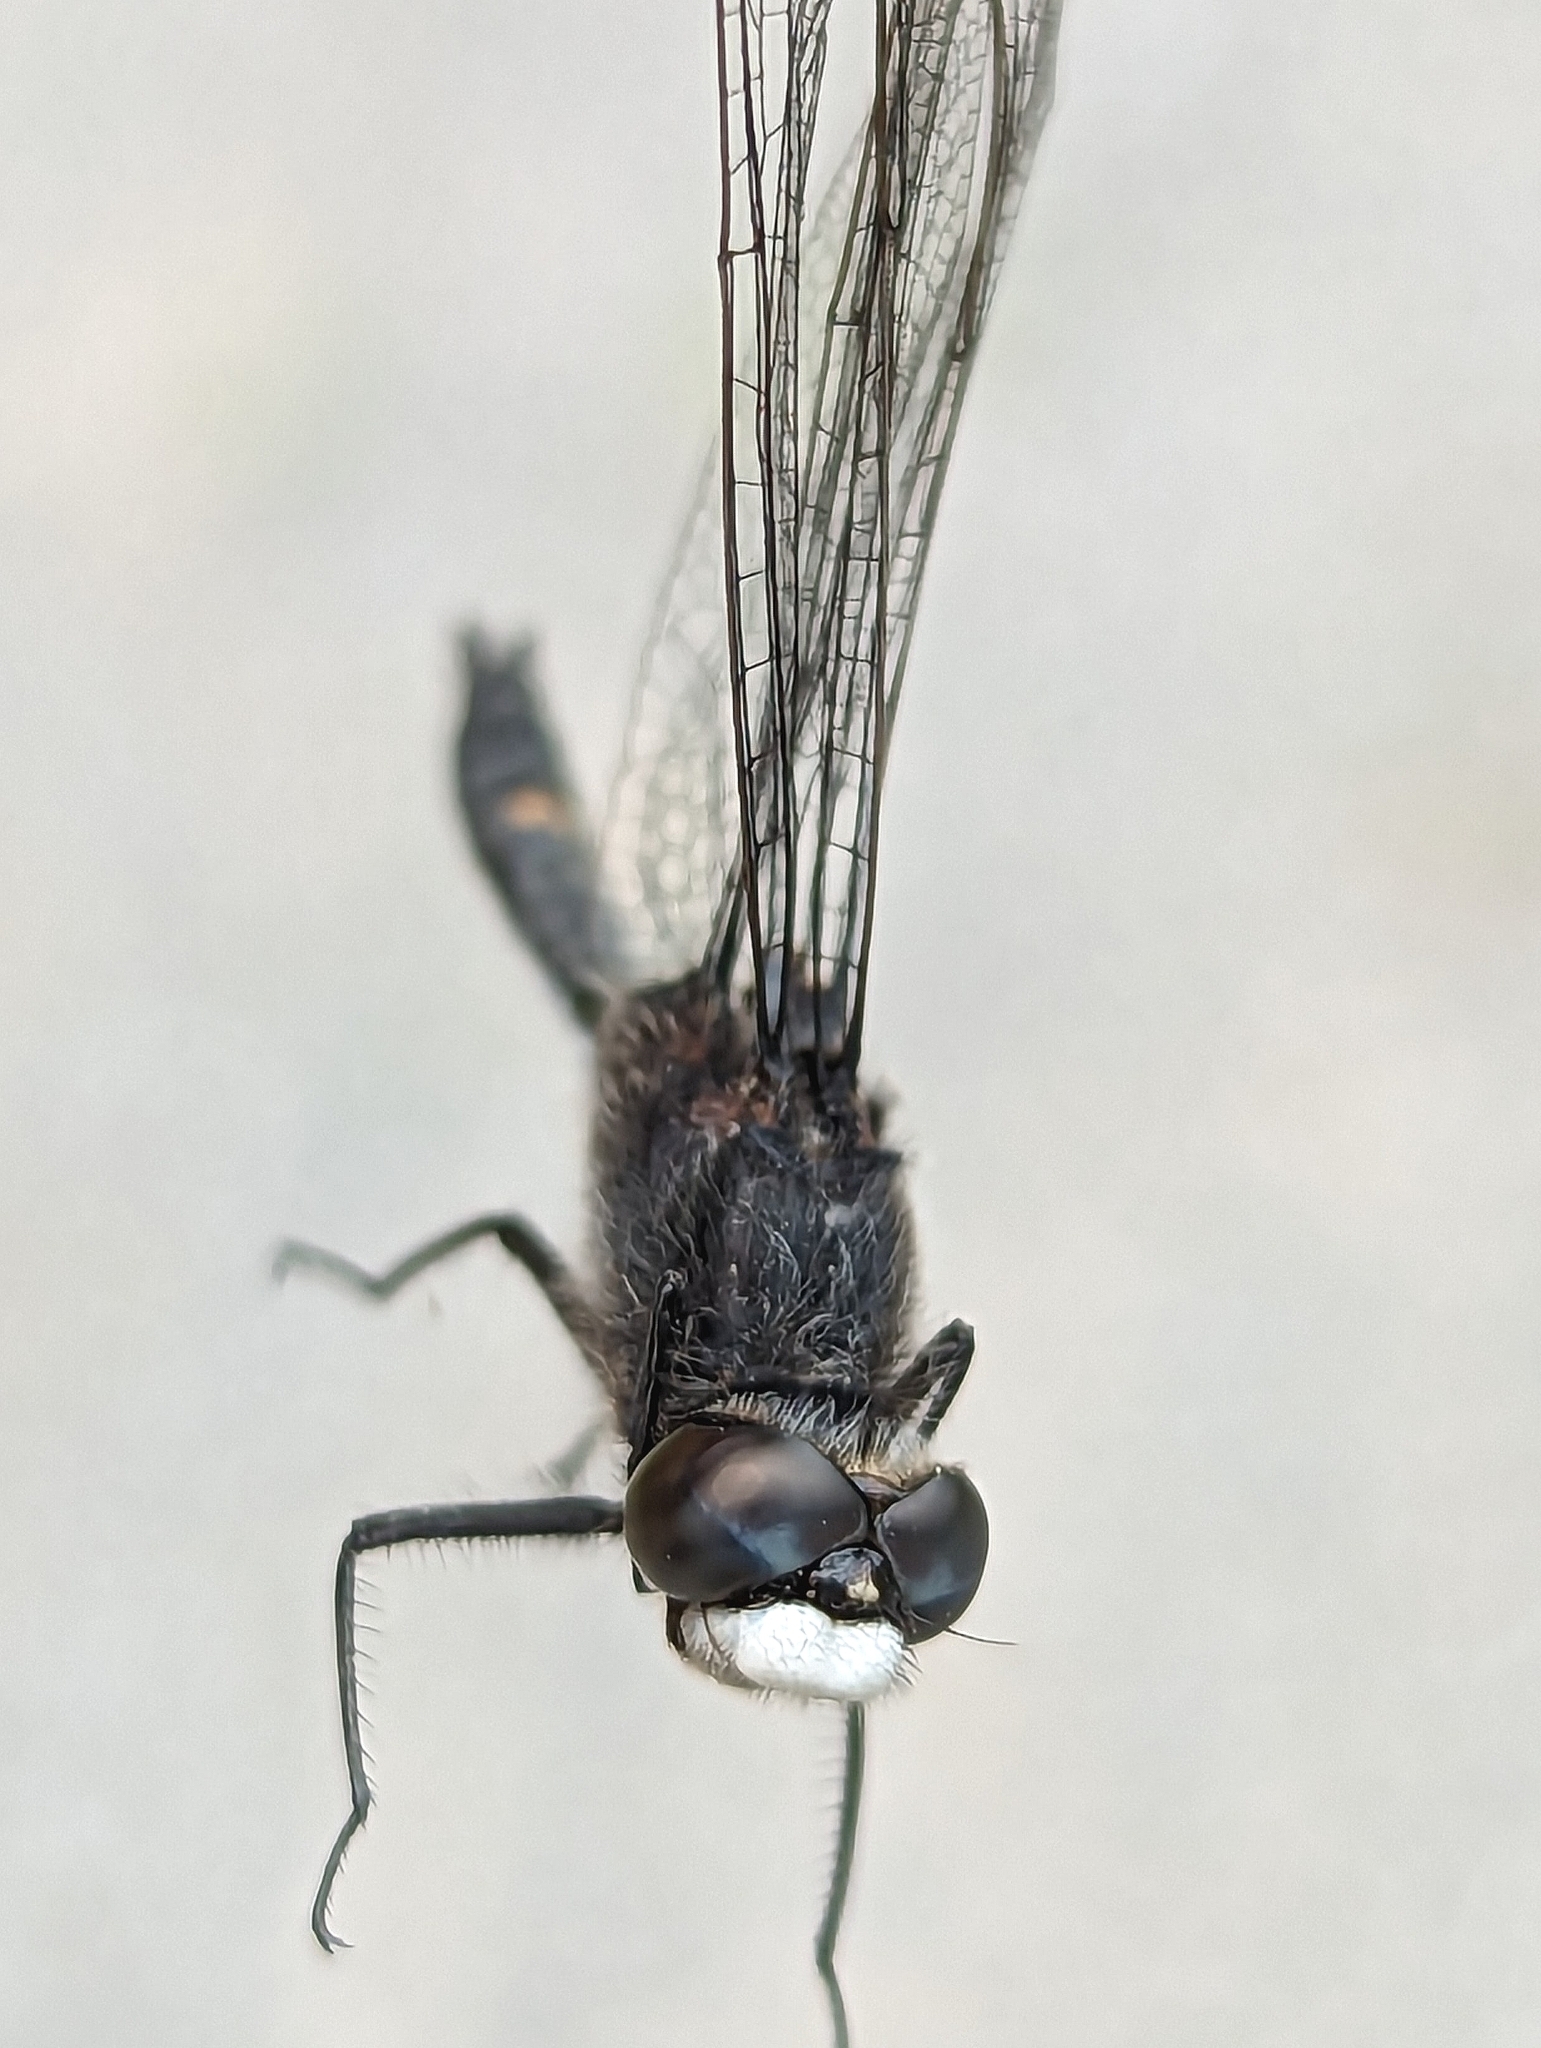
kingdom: Animalia
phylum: Arthropoda
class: Insecta
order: Odonata
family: Libellulidae
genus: Leucorrhinia
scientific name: Leucorrhinia intacta
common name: Dot-tailed whiteface
